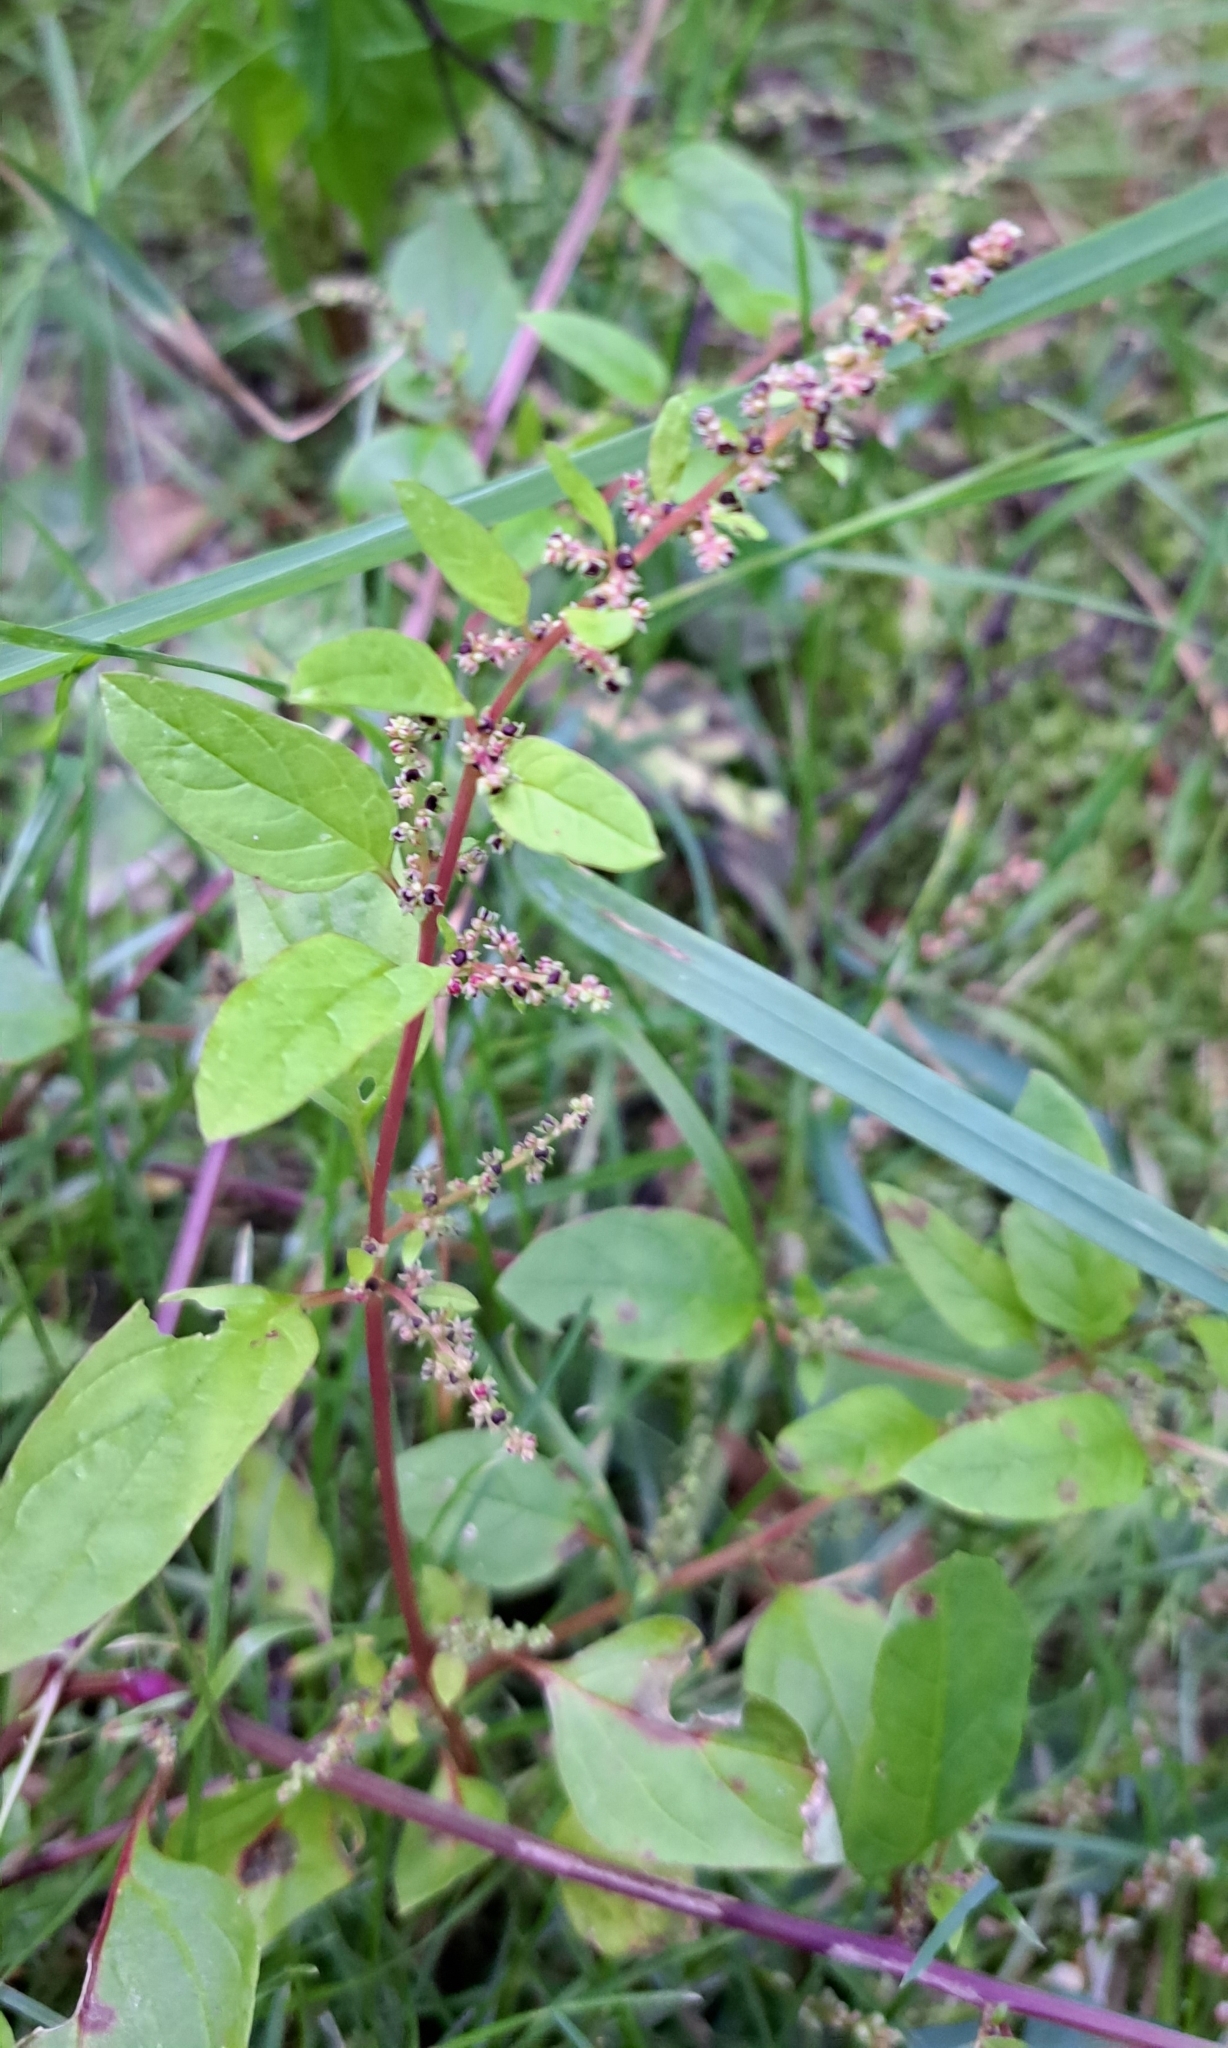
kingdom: Plantae
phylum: Tracheophyta
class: Magnoliopsida
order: Caryophyllales
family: Amaranthaceae
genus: Lipandra
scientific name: Lipandra polysperma
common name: Many-seed goosefoot
